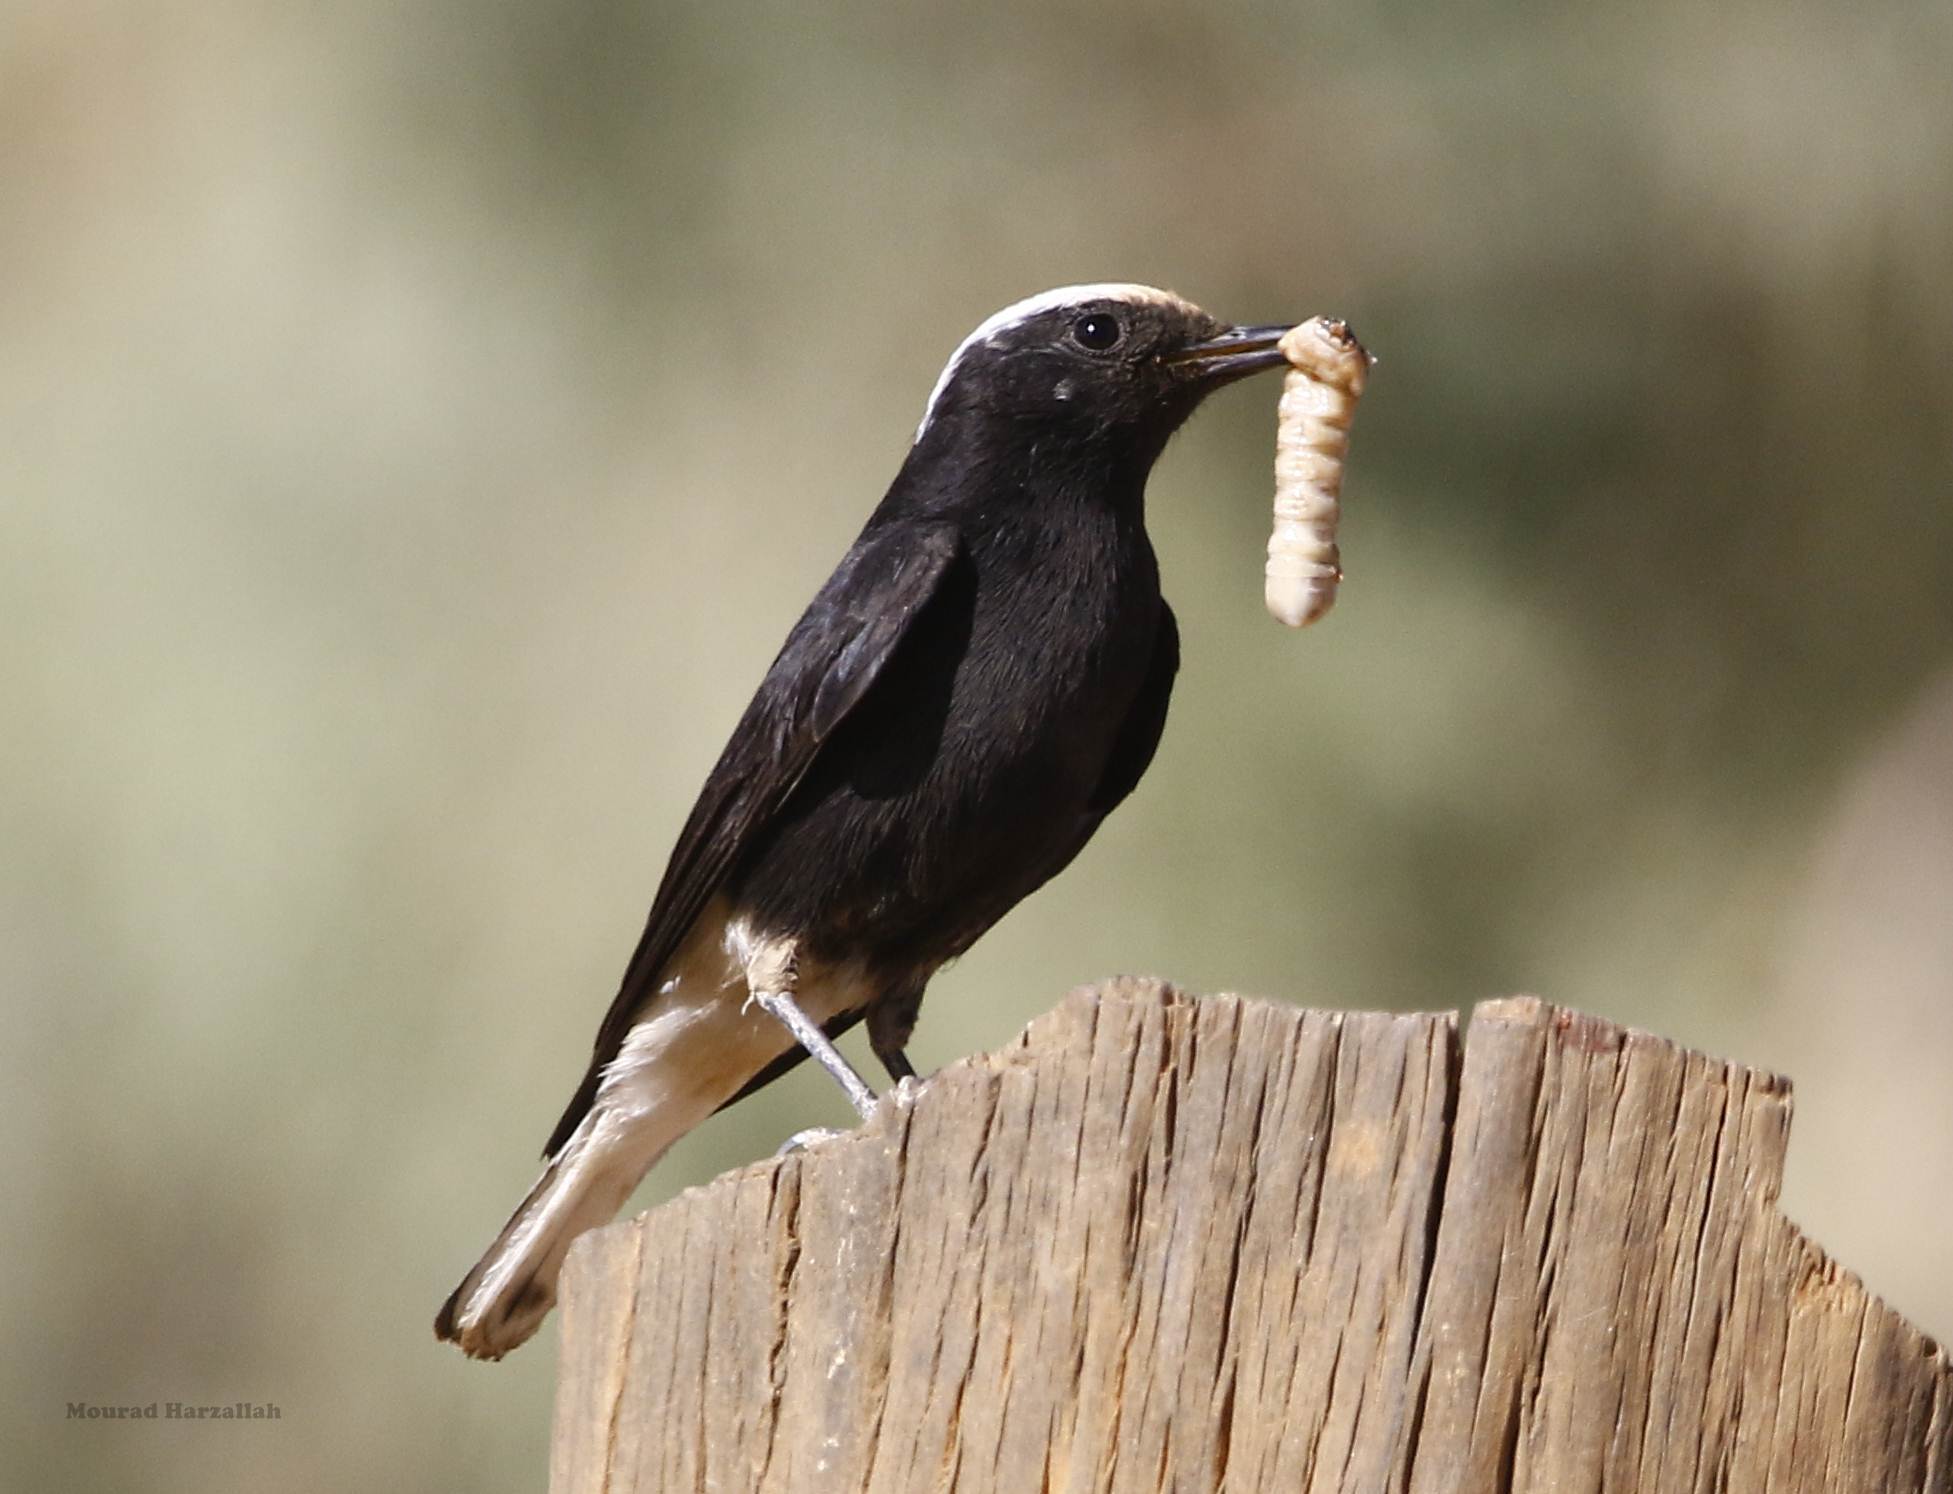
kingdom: Animalia
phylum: Chordata
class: Aves
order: Passeriformes
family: Muscicapidae
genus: Oenanthe
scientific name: Oenanthe leucopyga
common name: White-crowned wheatear
